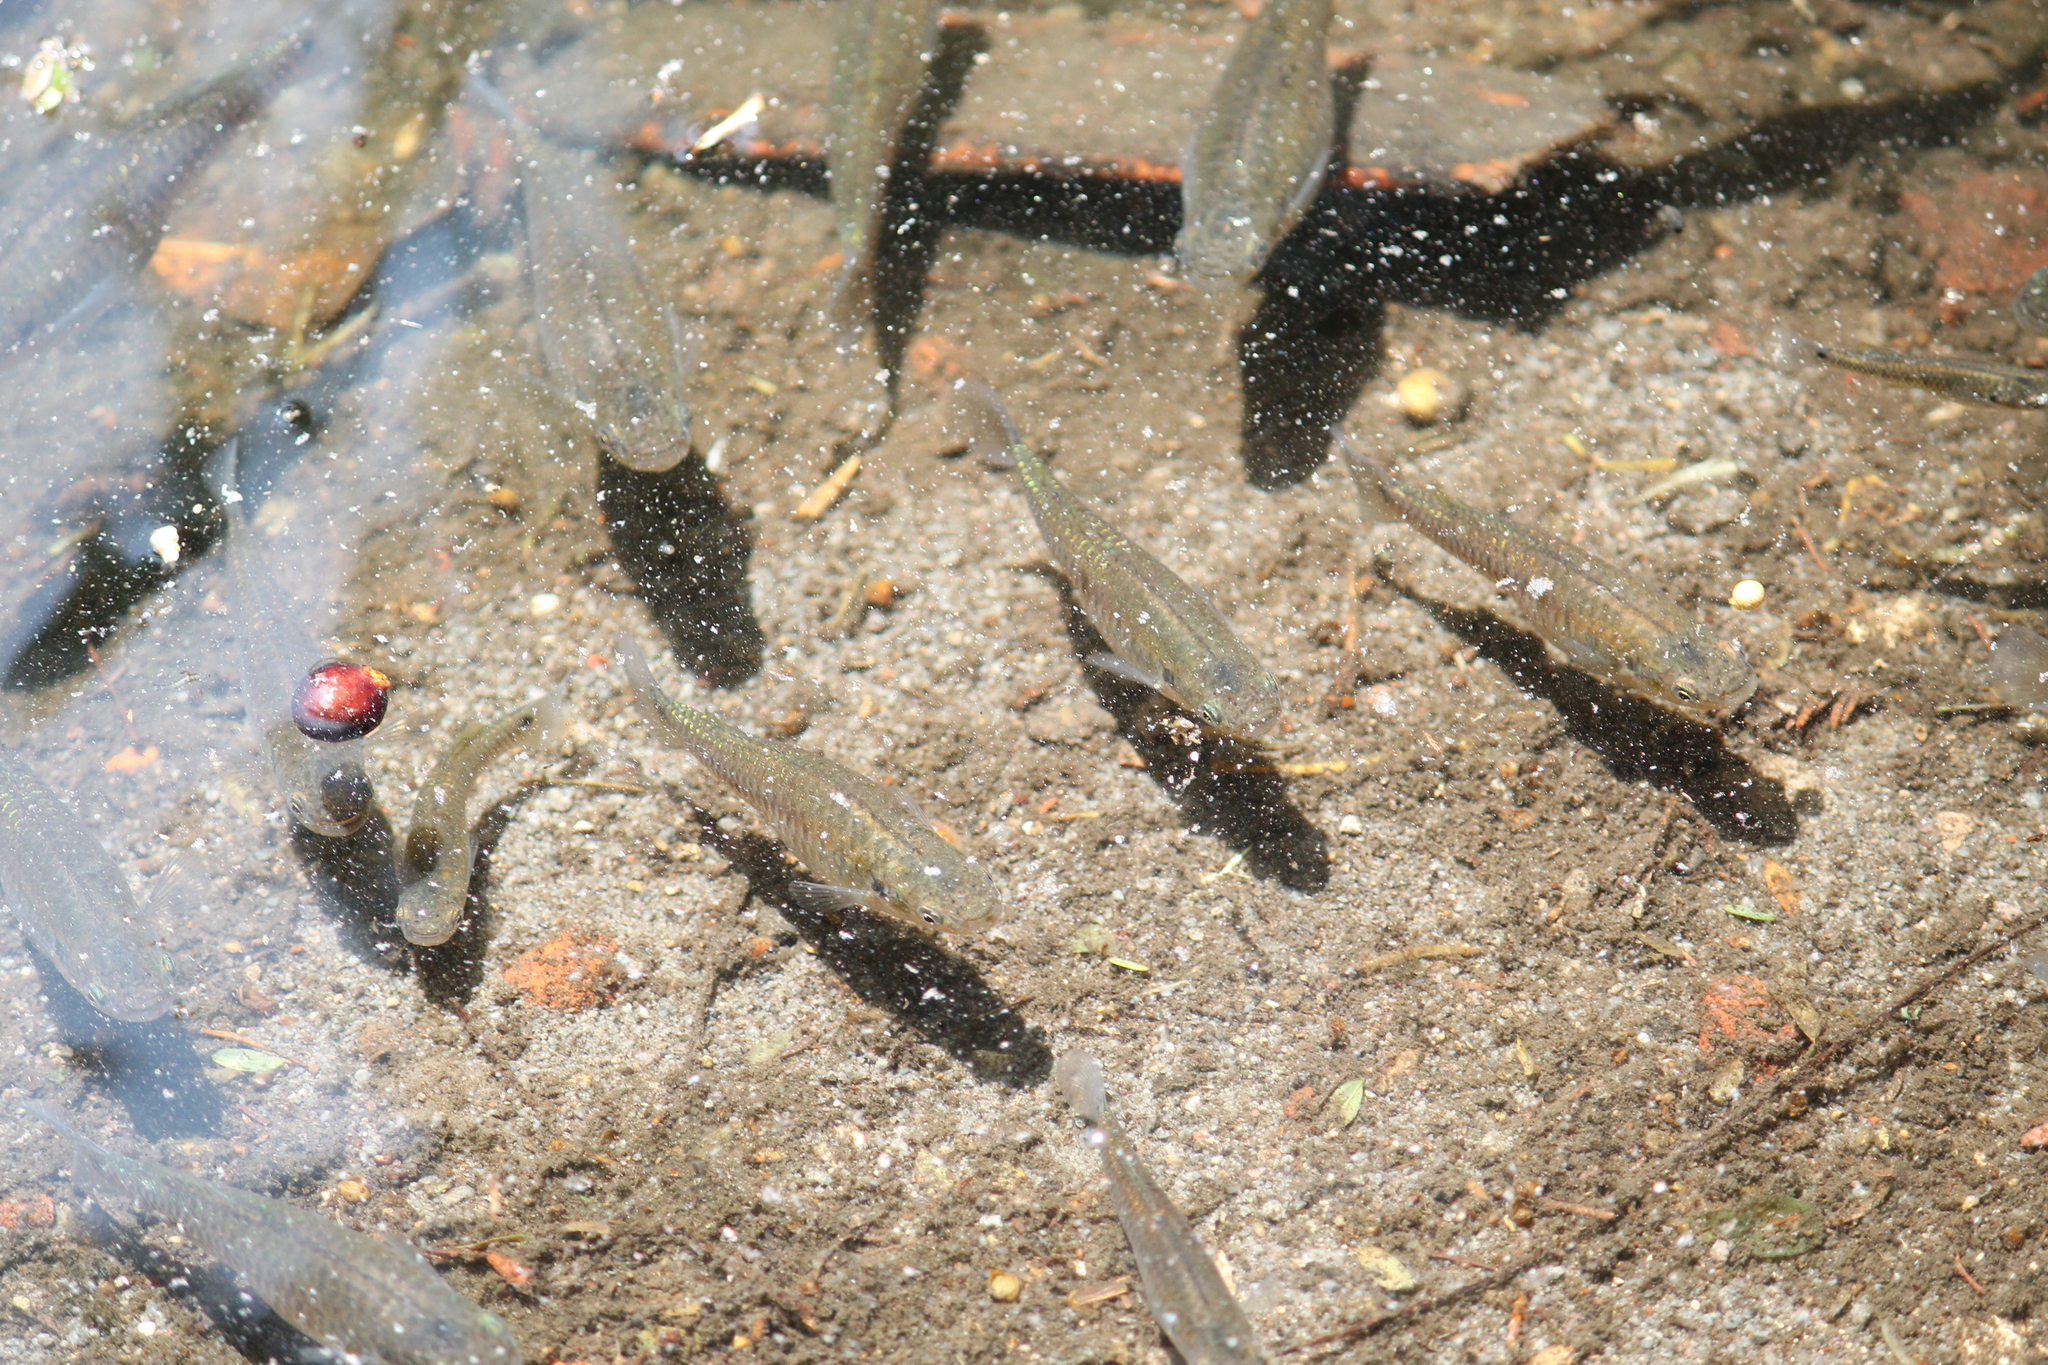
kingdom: Animalia
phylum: Chordata
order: Cyprinodontiformes
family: Poeciliidae
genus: Gambusia
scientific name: Gambusia affinis
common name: Mosquitofish
